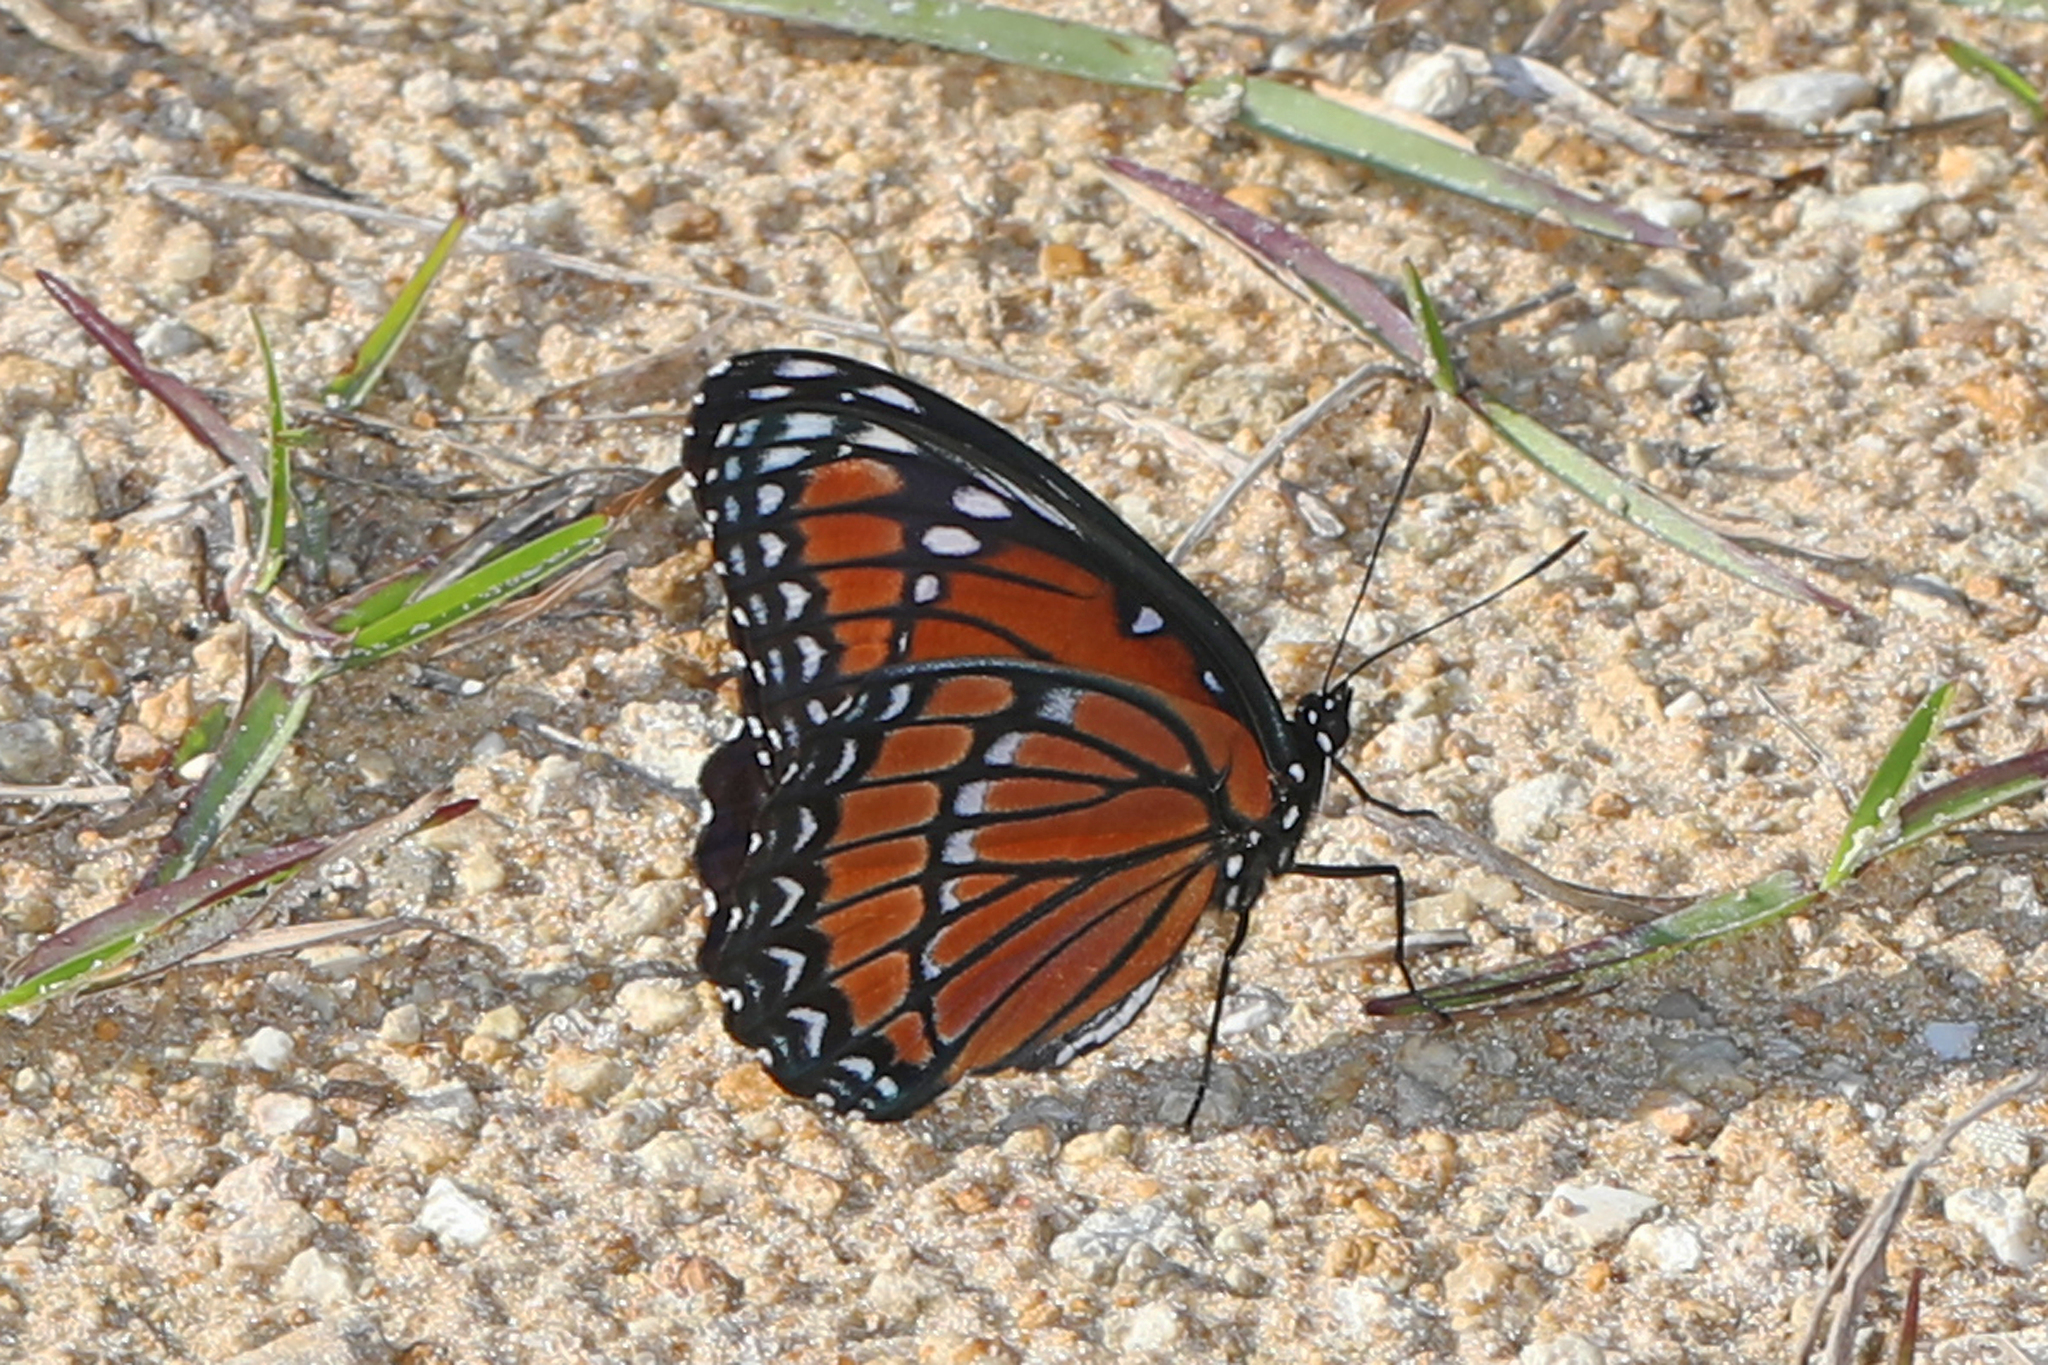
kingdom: Animalia
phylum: Arthropoda
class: Insecta
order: Lepidoptera
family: Nymphalidae
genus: Limenitis
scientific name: Limenitis archippus
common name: Viceroy
